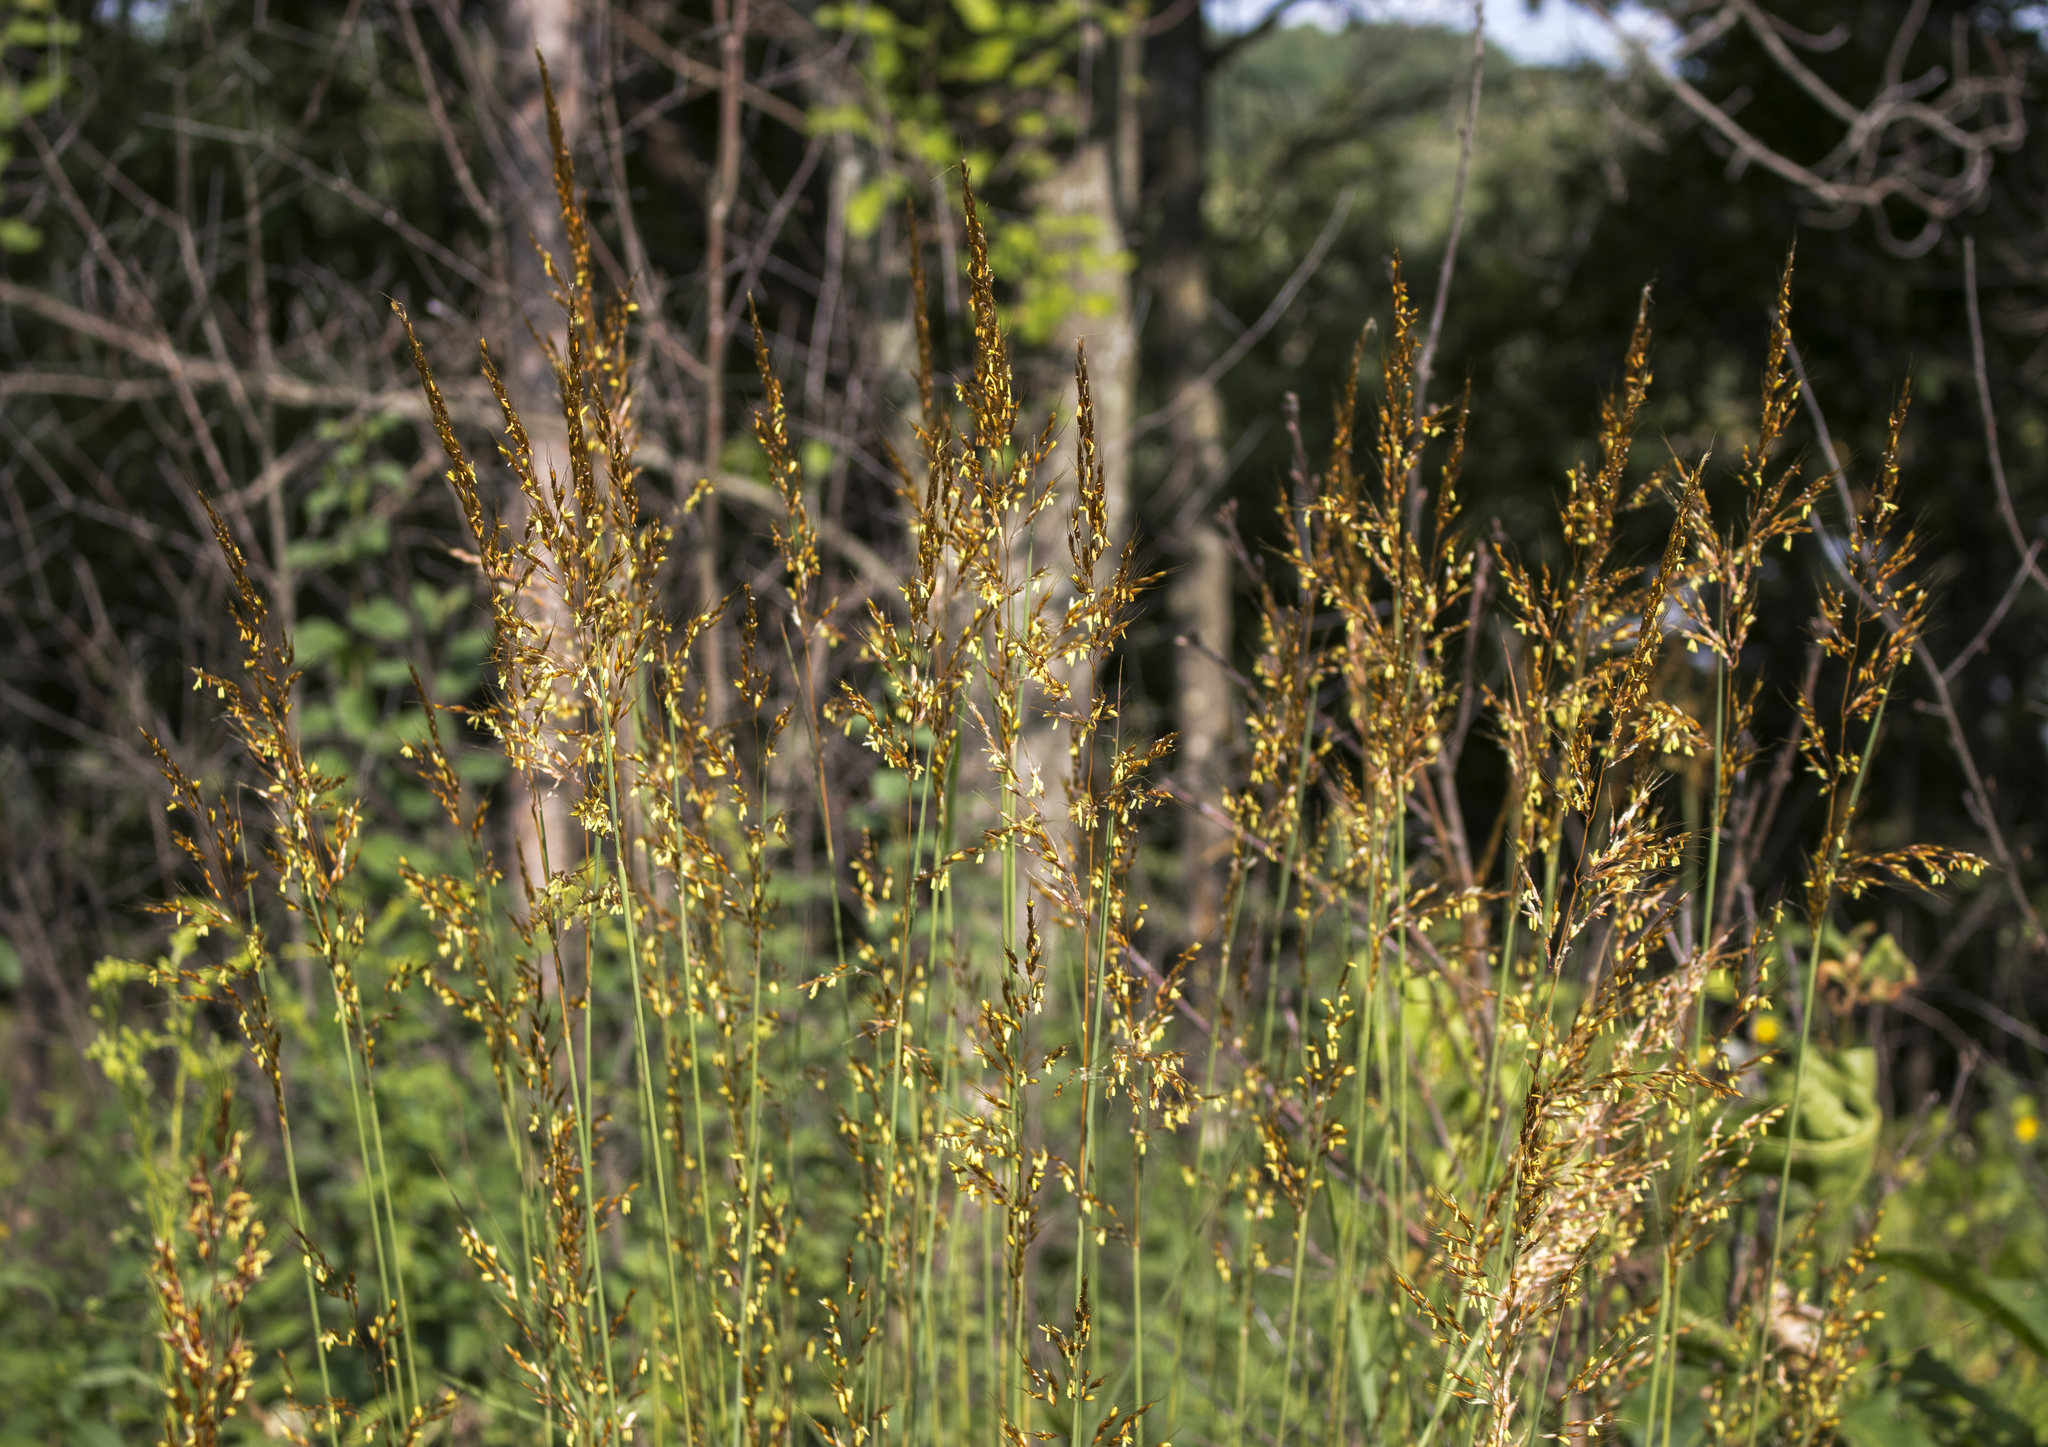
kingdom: Plantae
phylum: Tracheophyta
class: Liliopsida
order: Poales
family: Poaceae
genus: Sorghastrum
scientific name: Sorghastrum nutans
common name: Indian grass
